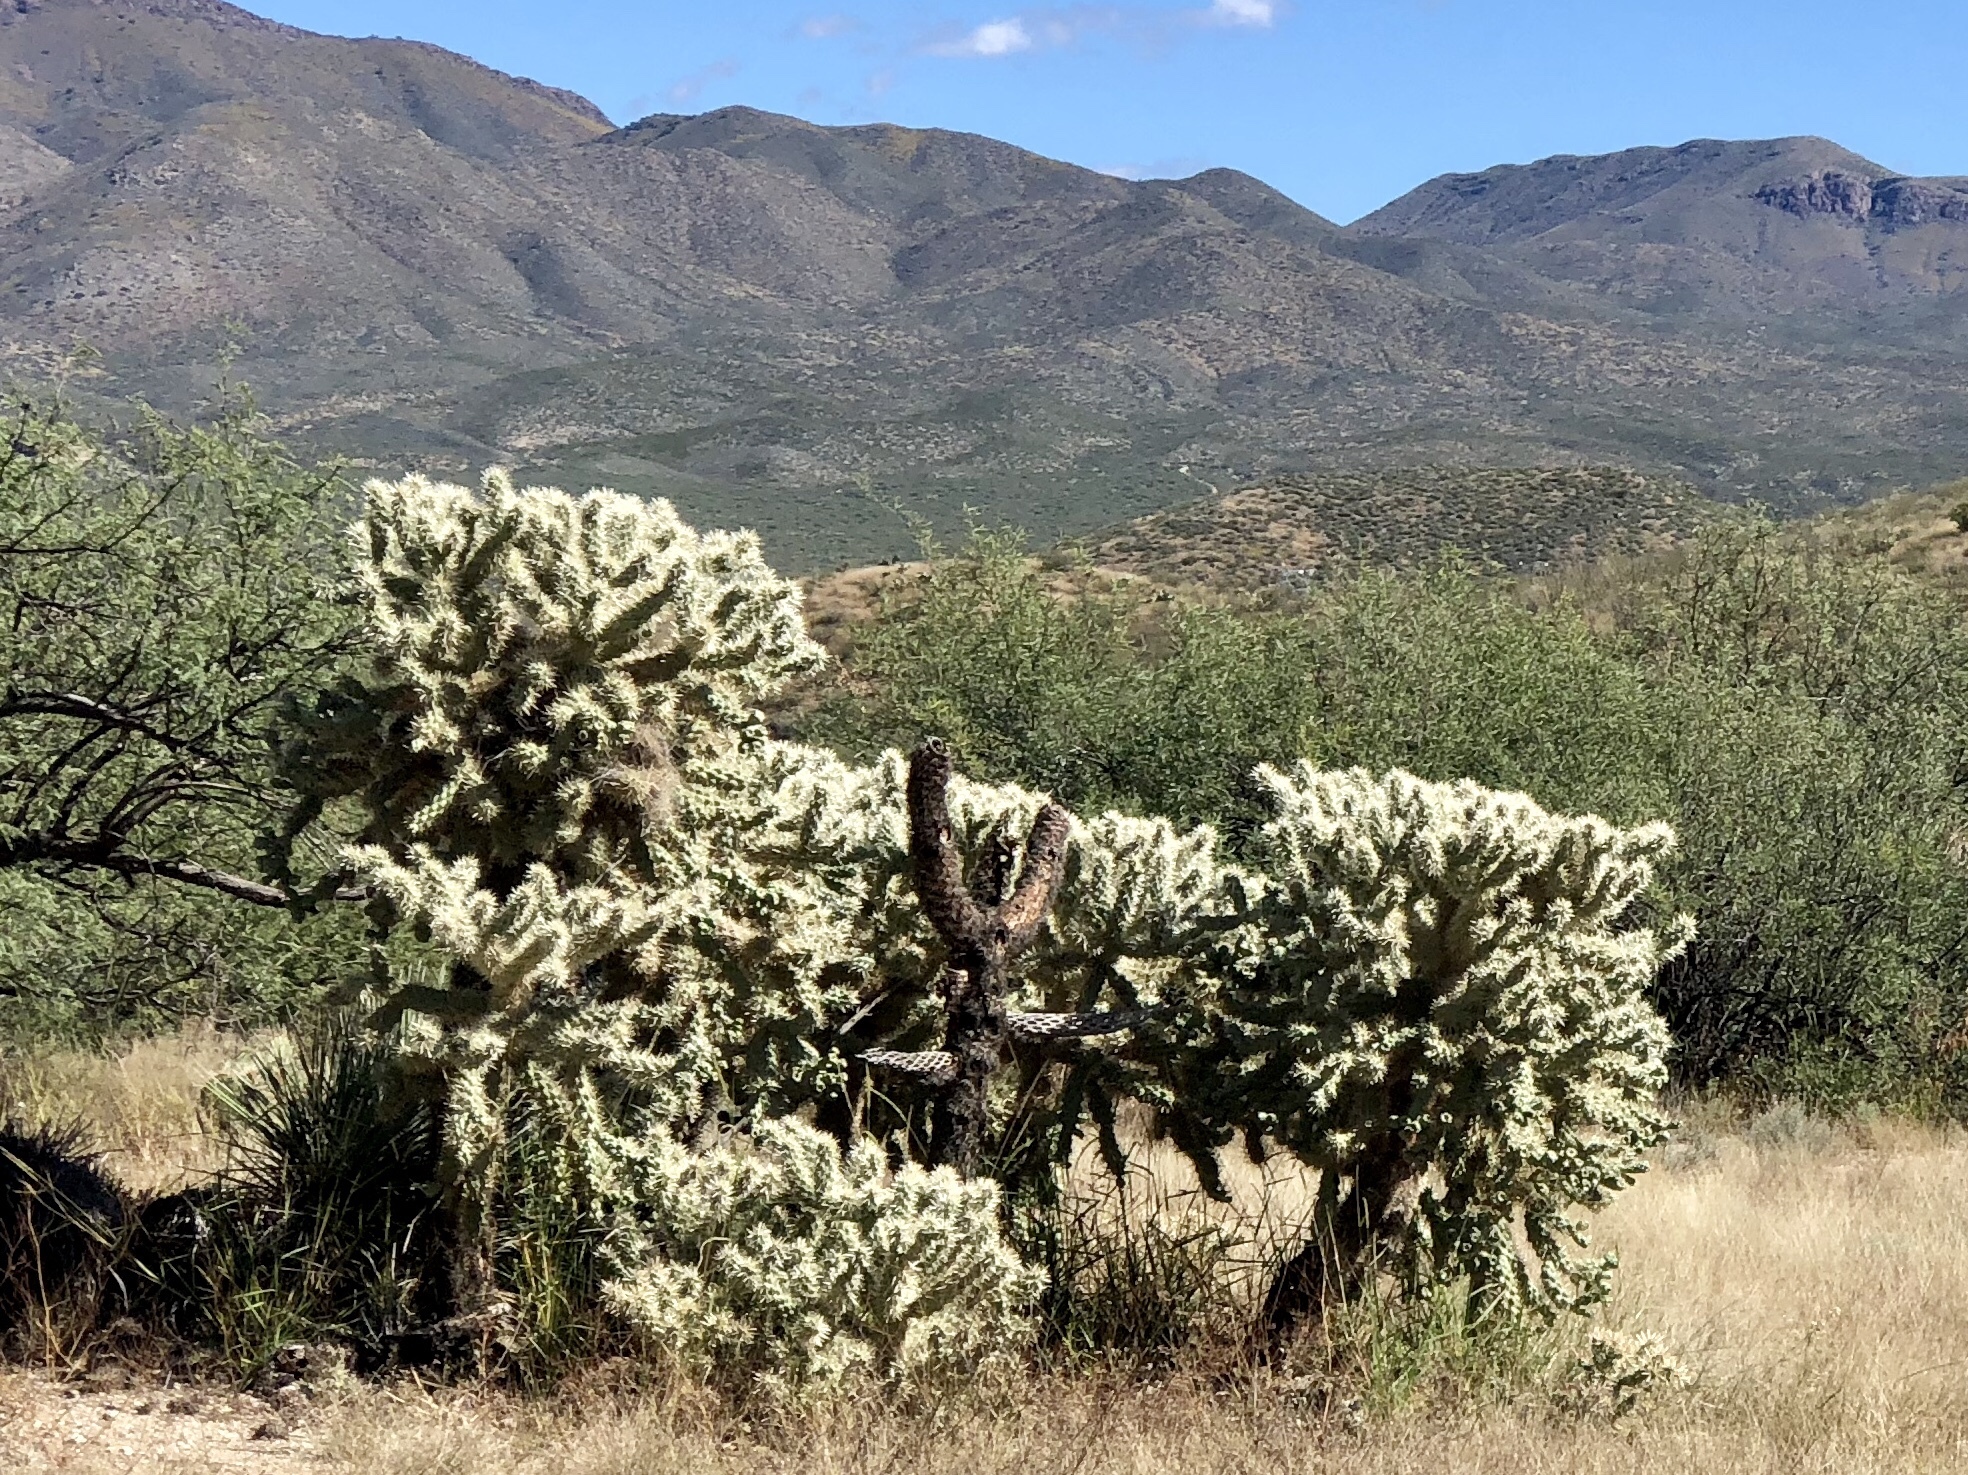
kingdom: Plantae
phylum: Tracheophyta
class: Magnoliopsida
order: Caryophyllales
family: Cactaceae
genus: Cylindropuntia
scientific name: Cylindropuntia fulgida
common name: Jumping cholla
